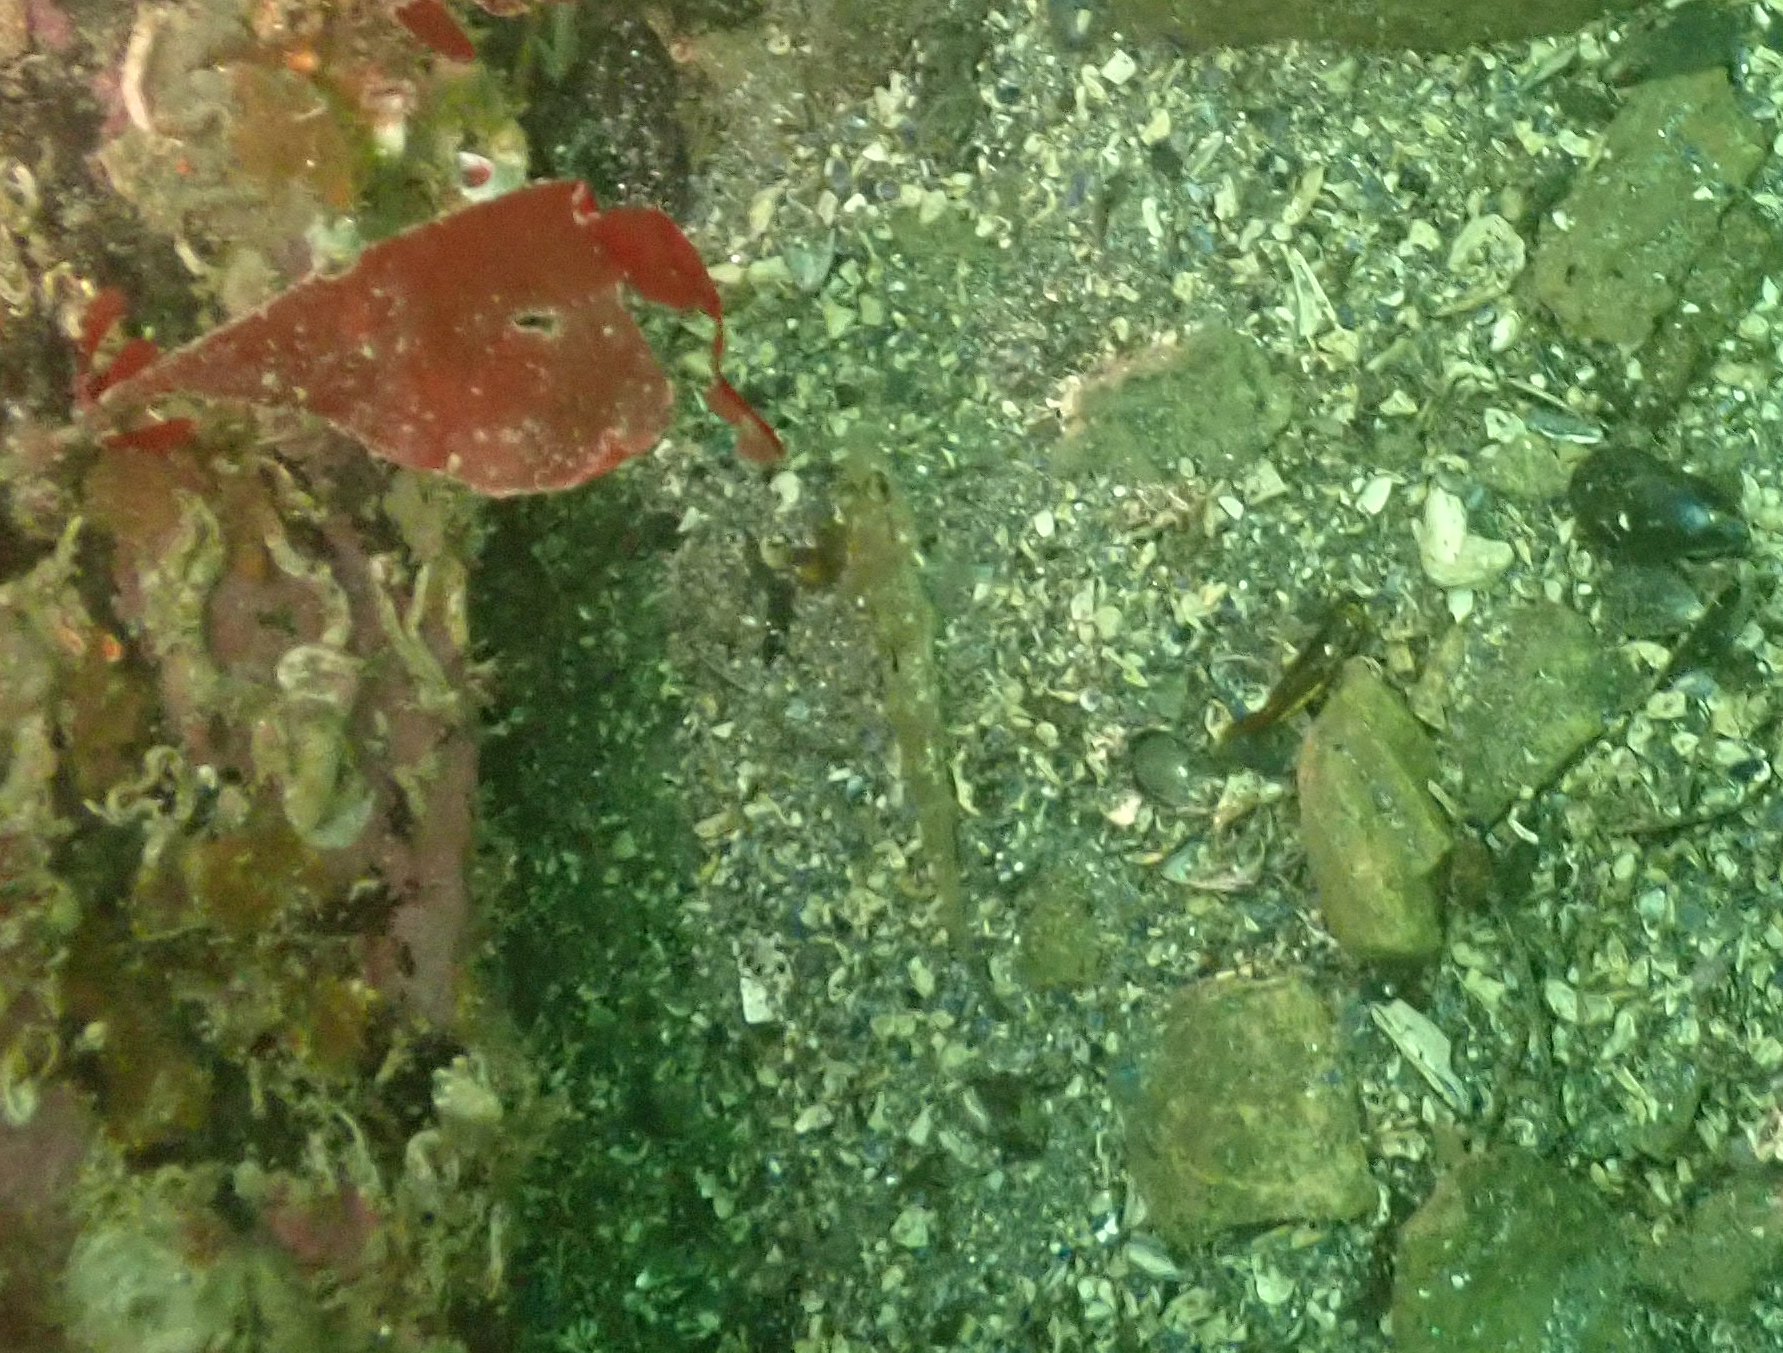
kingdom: Animalia
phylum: Chordata
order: Perciformes
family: Gobiidae
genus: Rhinogobiops
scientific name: Rhinogobiops nicholsii
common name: Blackeye goby
